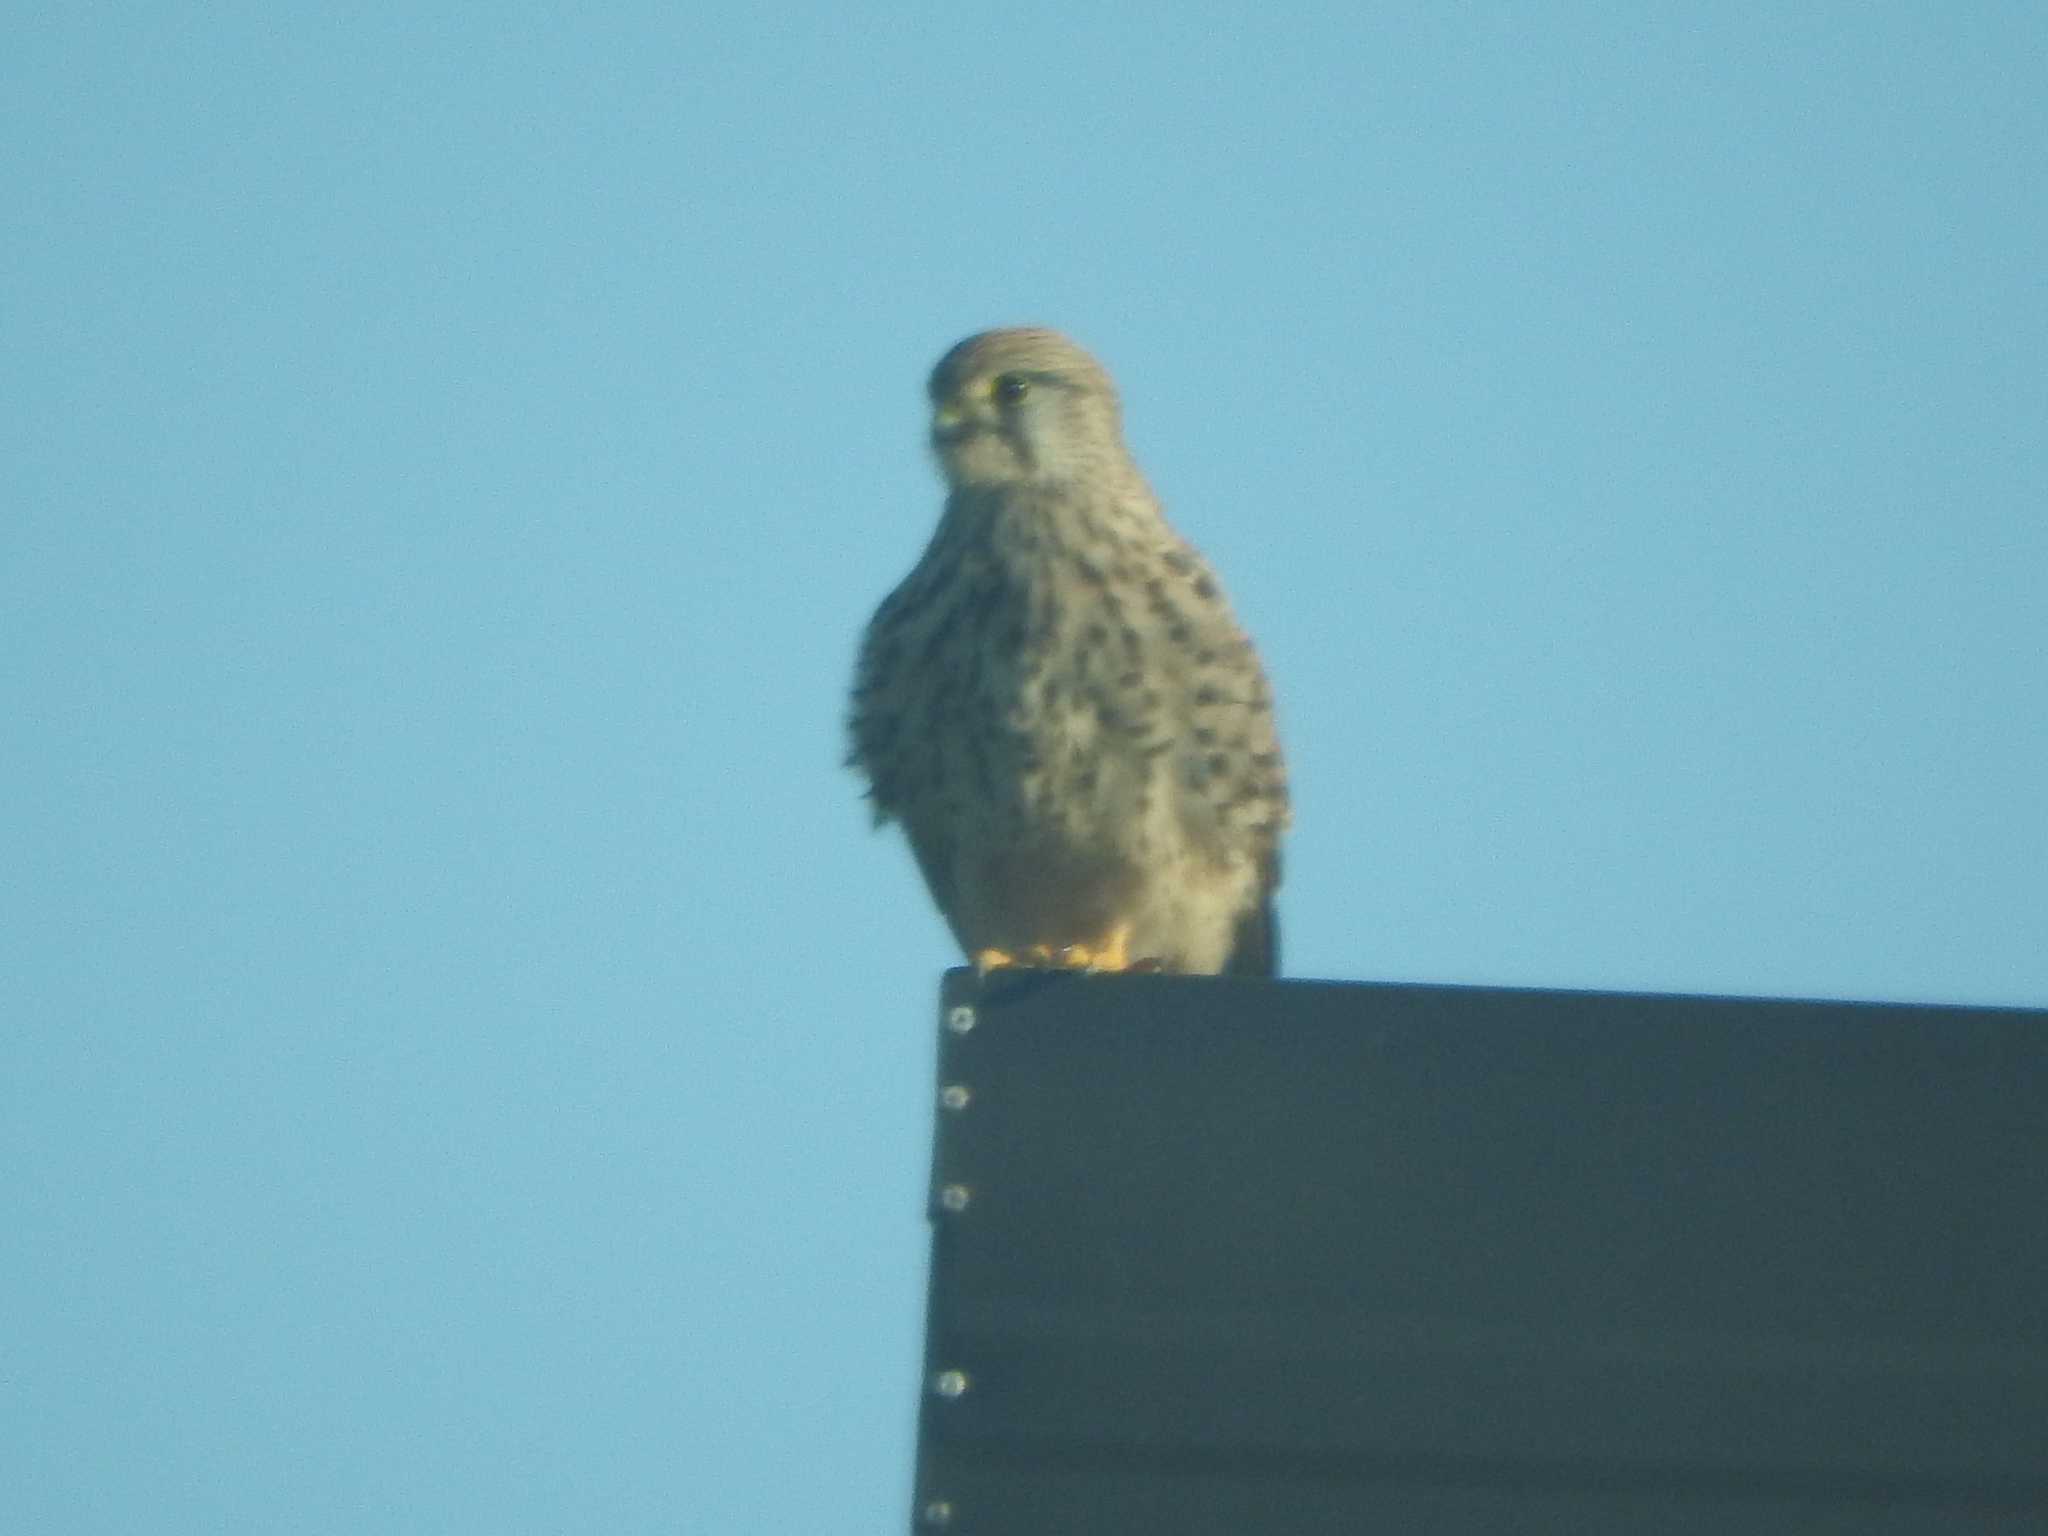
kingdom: Animalia
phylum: Chordata
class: Aves
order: Falconiformes
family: Falconidae
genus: Falco
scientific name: Falco tinnunculus
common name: Common kestrel
